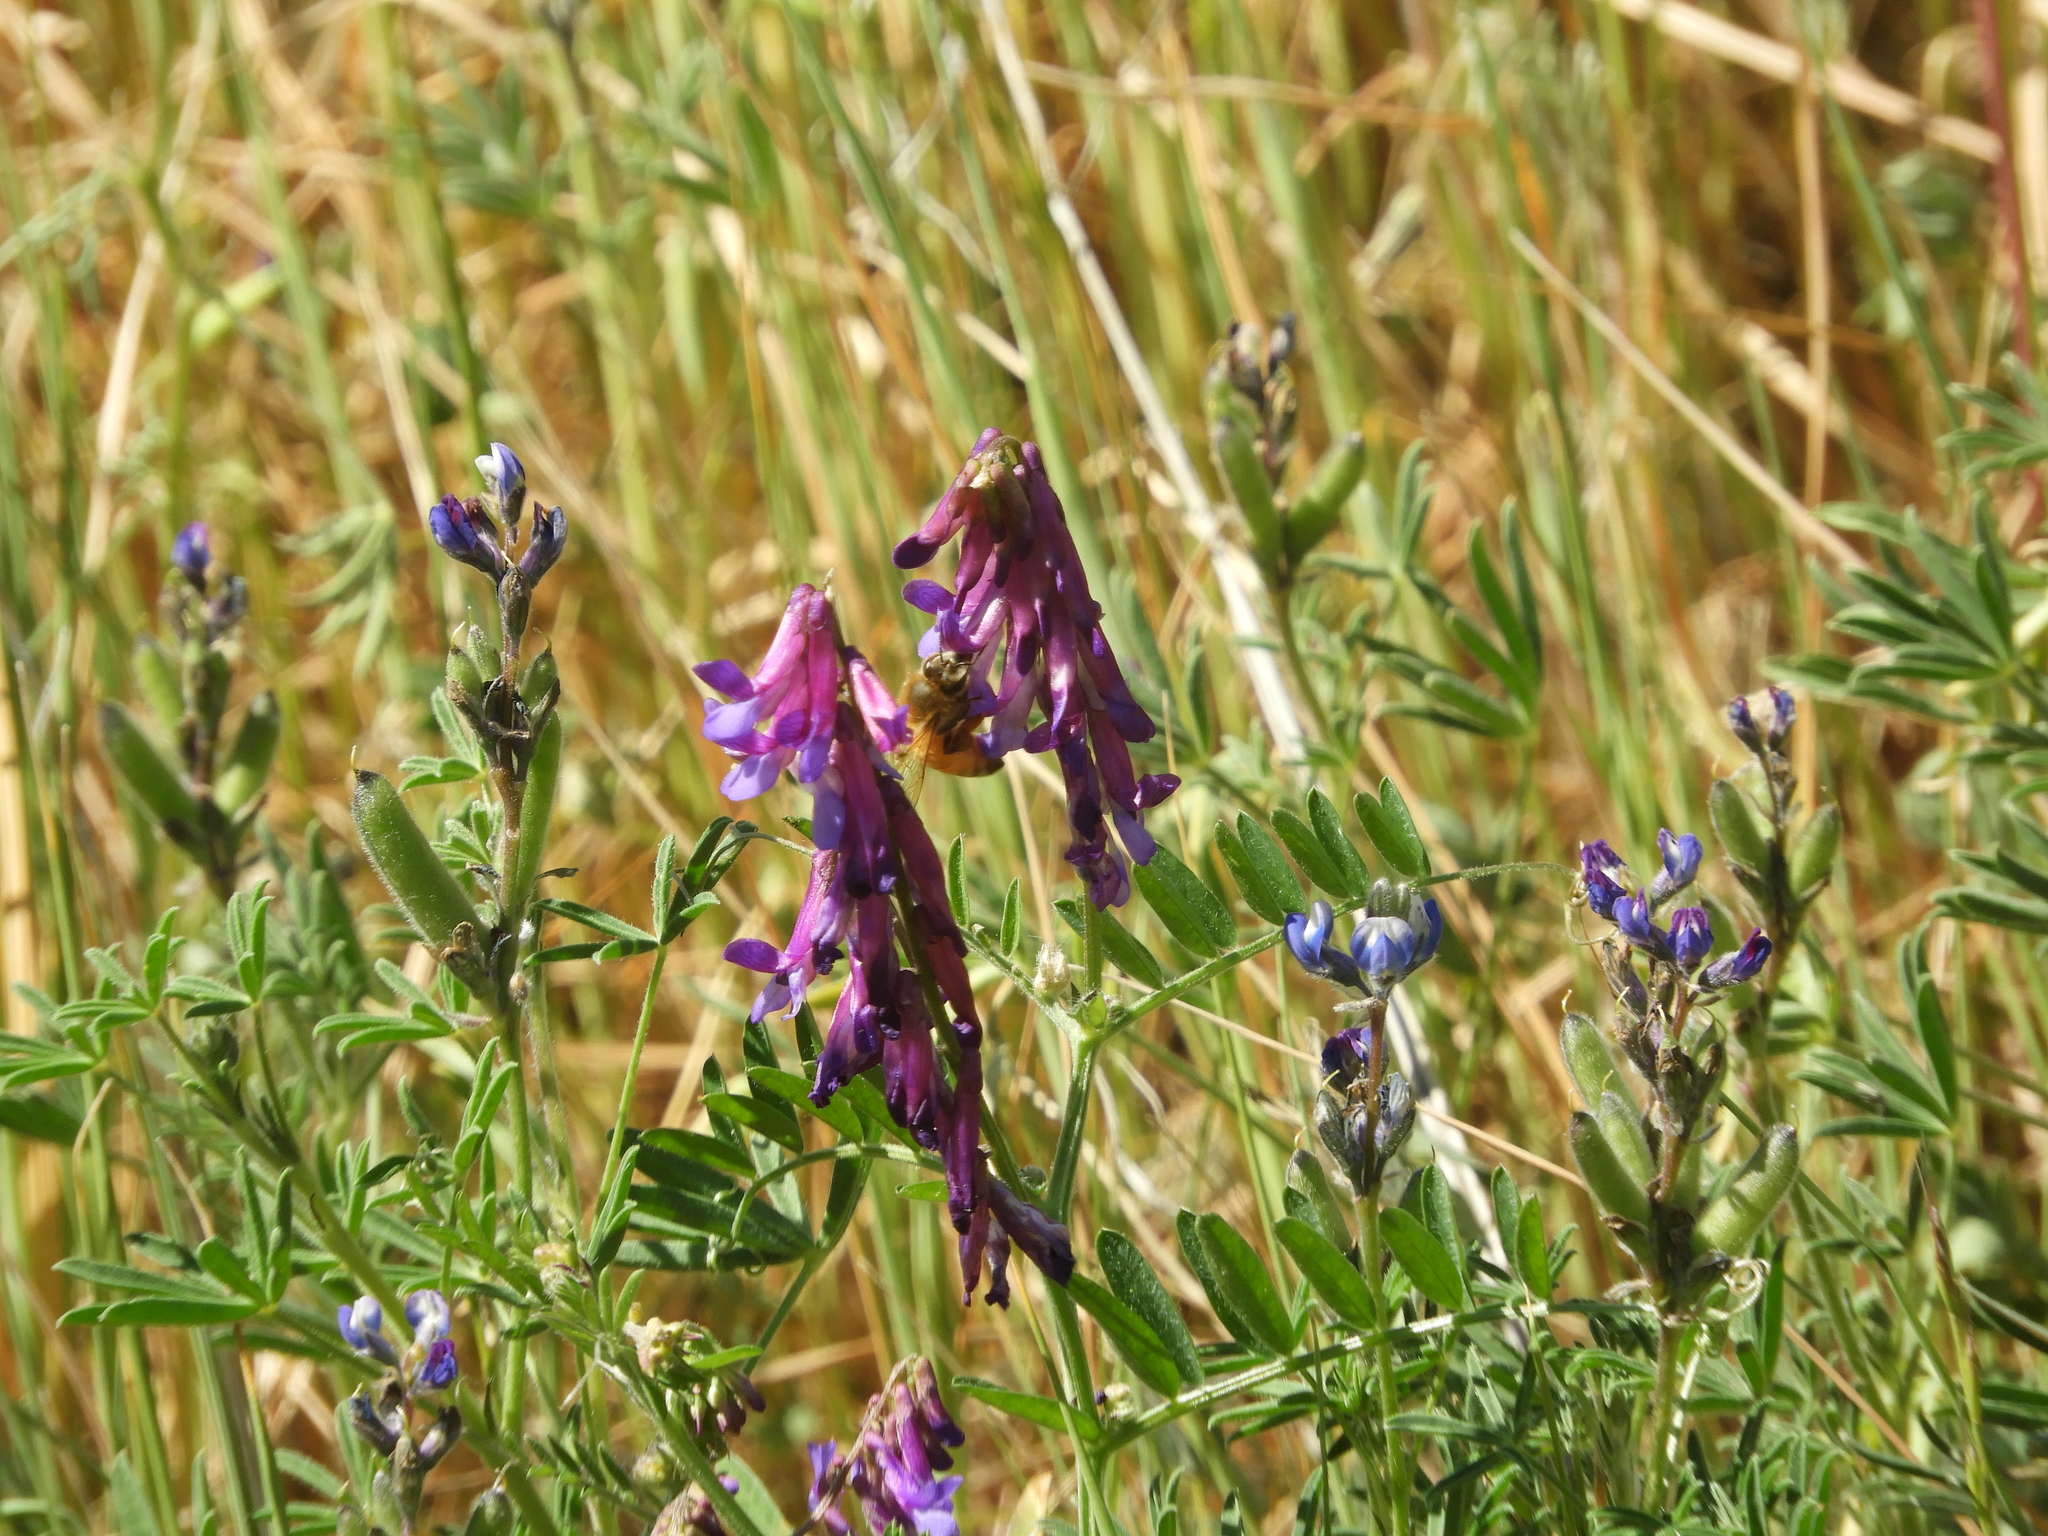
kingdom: Plantae
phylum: Tracheophyta
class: Magnoliopsida
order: Fabales
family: Fabaceae
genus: Vicia
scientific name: Vicia villosa
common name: Fodder vetch
